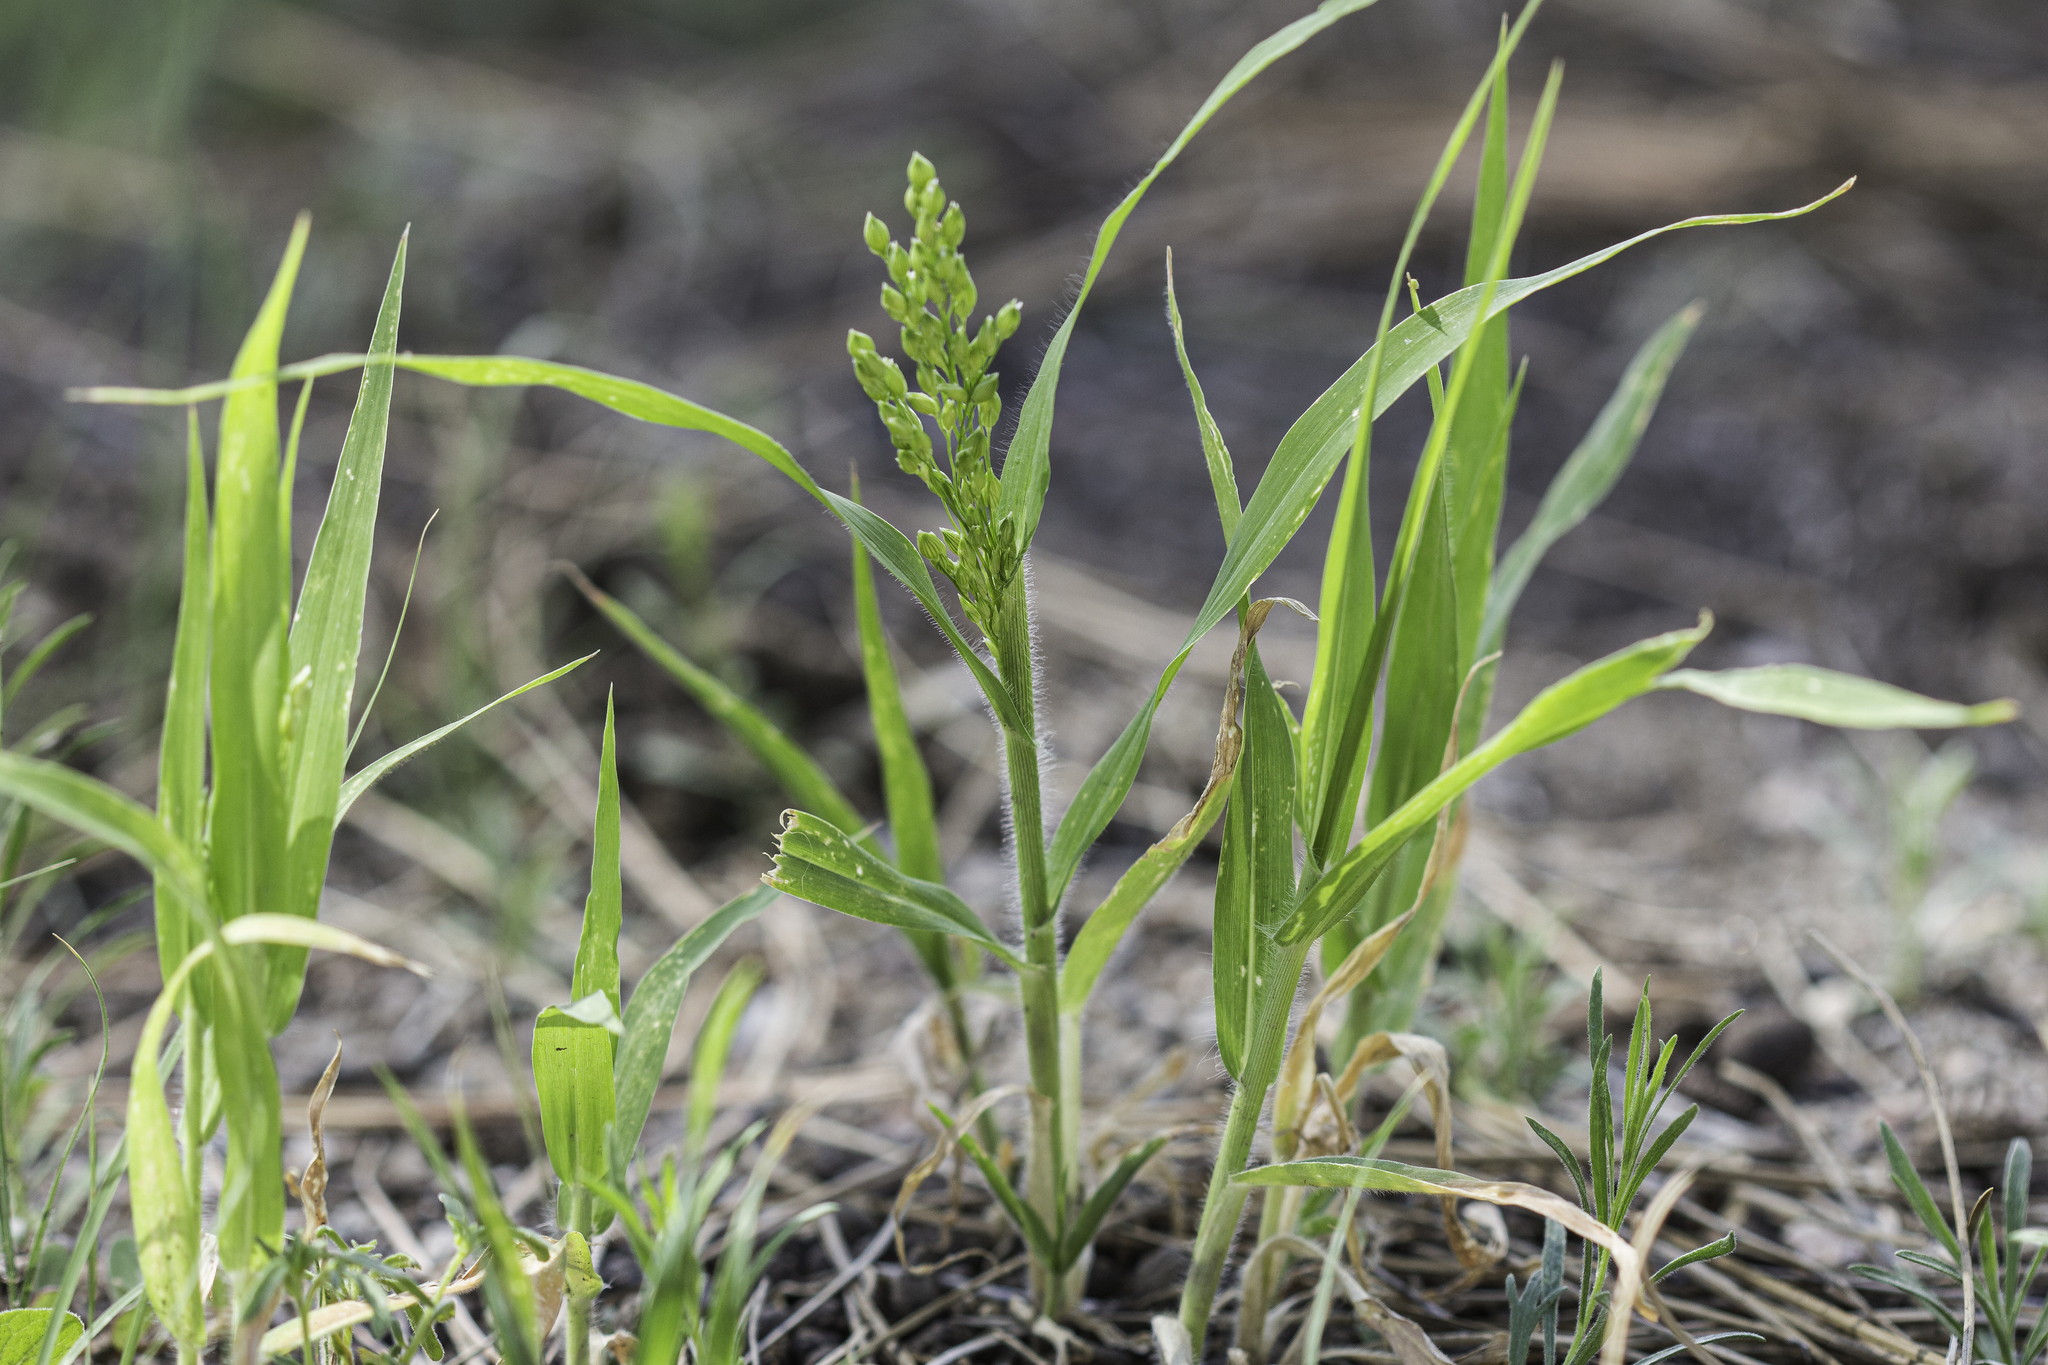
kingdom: Plantae
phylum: Tracheophyta
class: Liliopsida
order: Poales
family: Poaceae
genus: Panicum
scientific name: Panicum miliaceum
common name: Common millet
